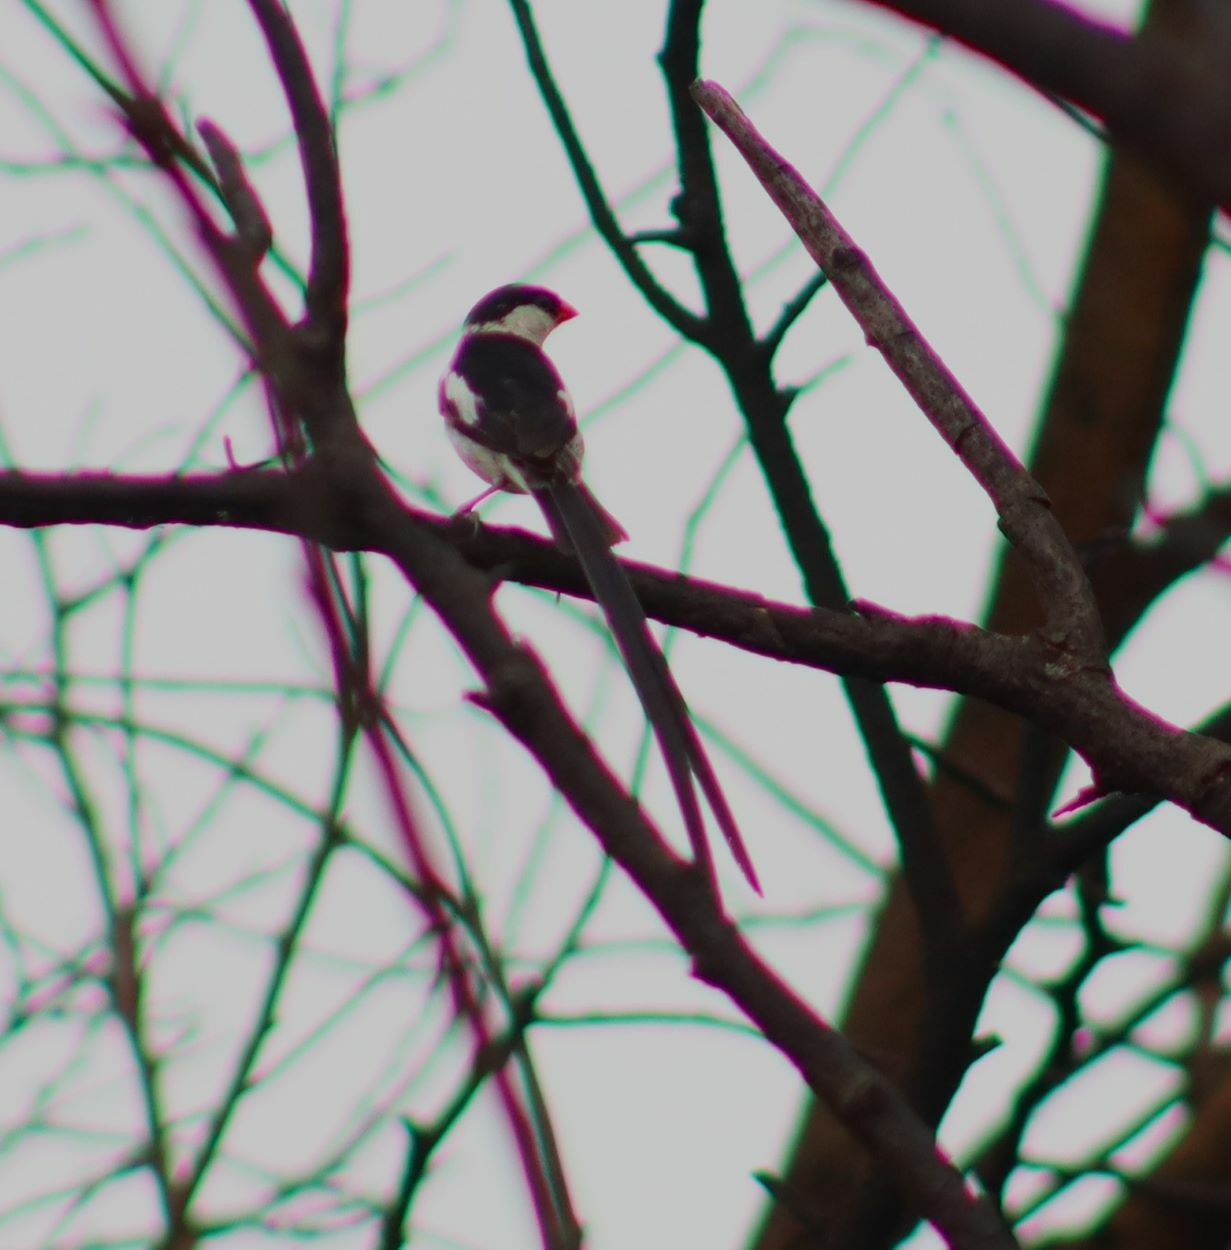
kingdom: Animalia
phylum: Chordata
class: Aves
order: Passeriformes
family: Viduidae
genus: Vidua
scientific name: Vidua macroura
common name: Pin-tailed whydah
